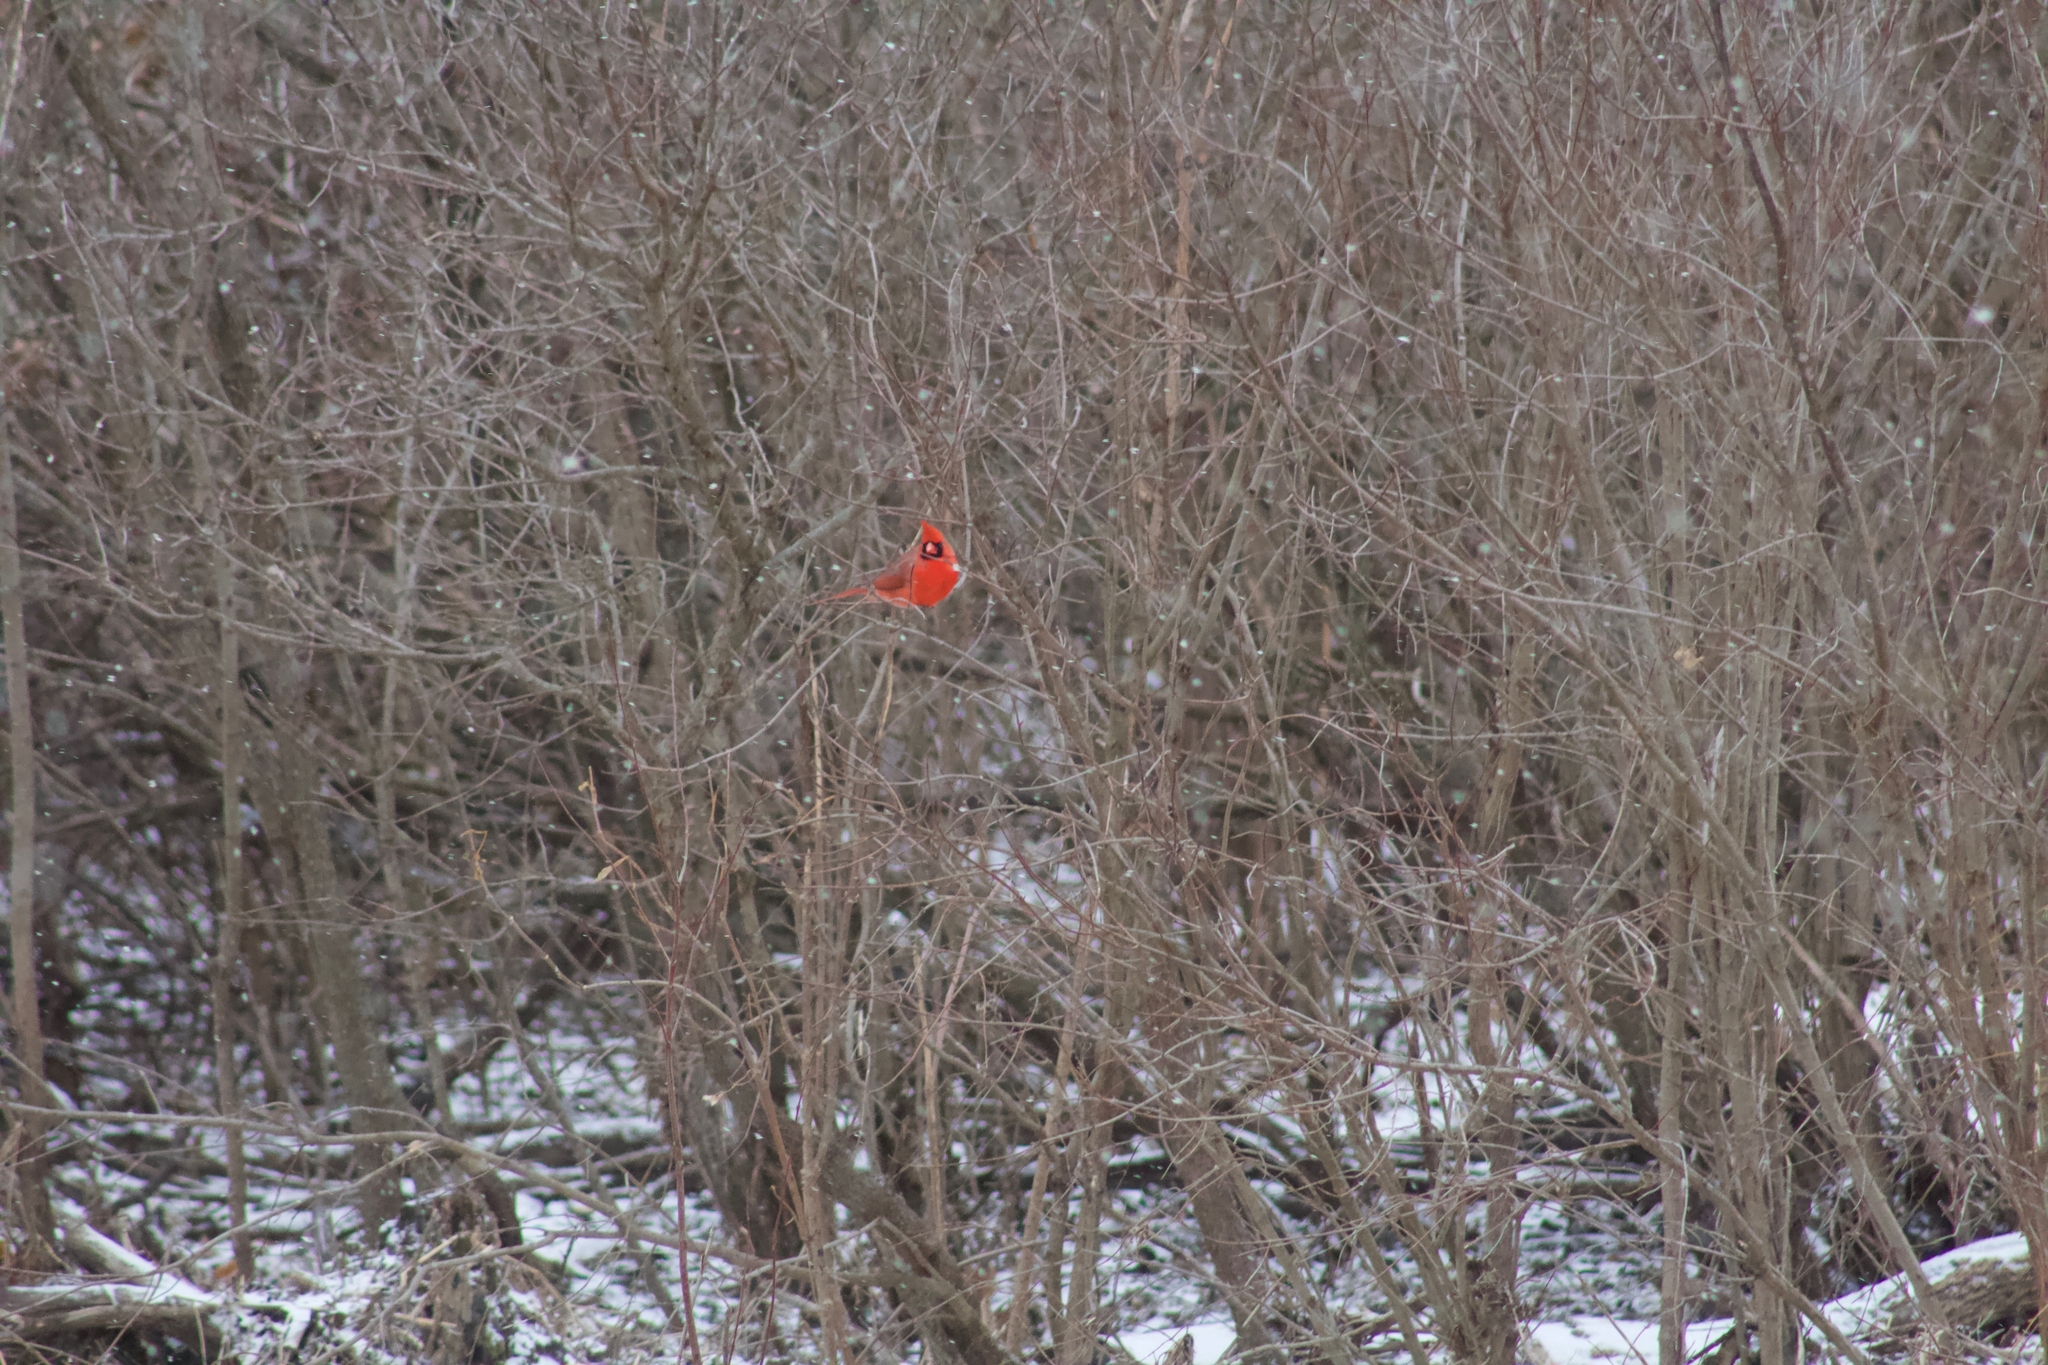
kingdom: Animalia
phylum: Chordata
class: Aves
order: Passeriformes
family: Cardinalidae
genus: Cardinalis
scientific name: Cardinalis cardinalis
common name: Northern cardinal
